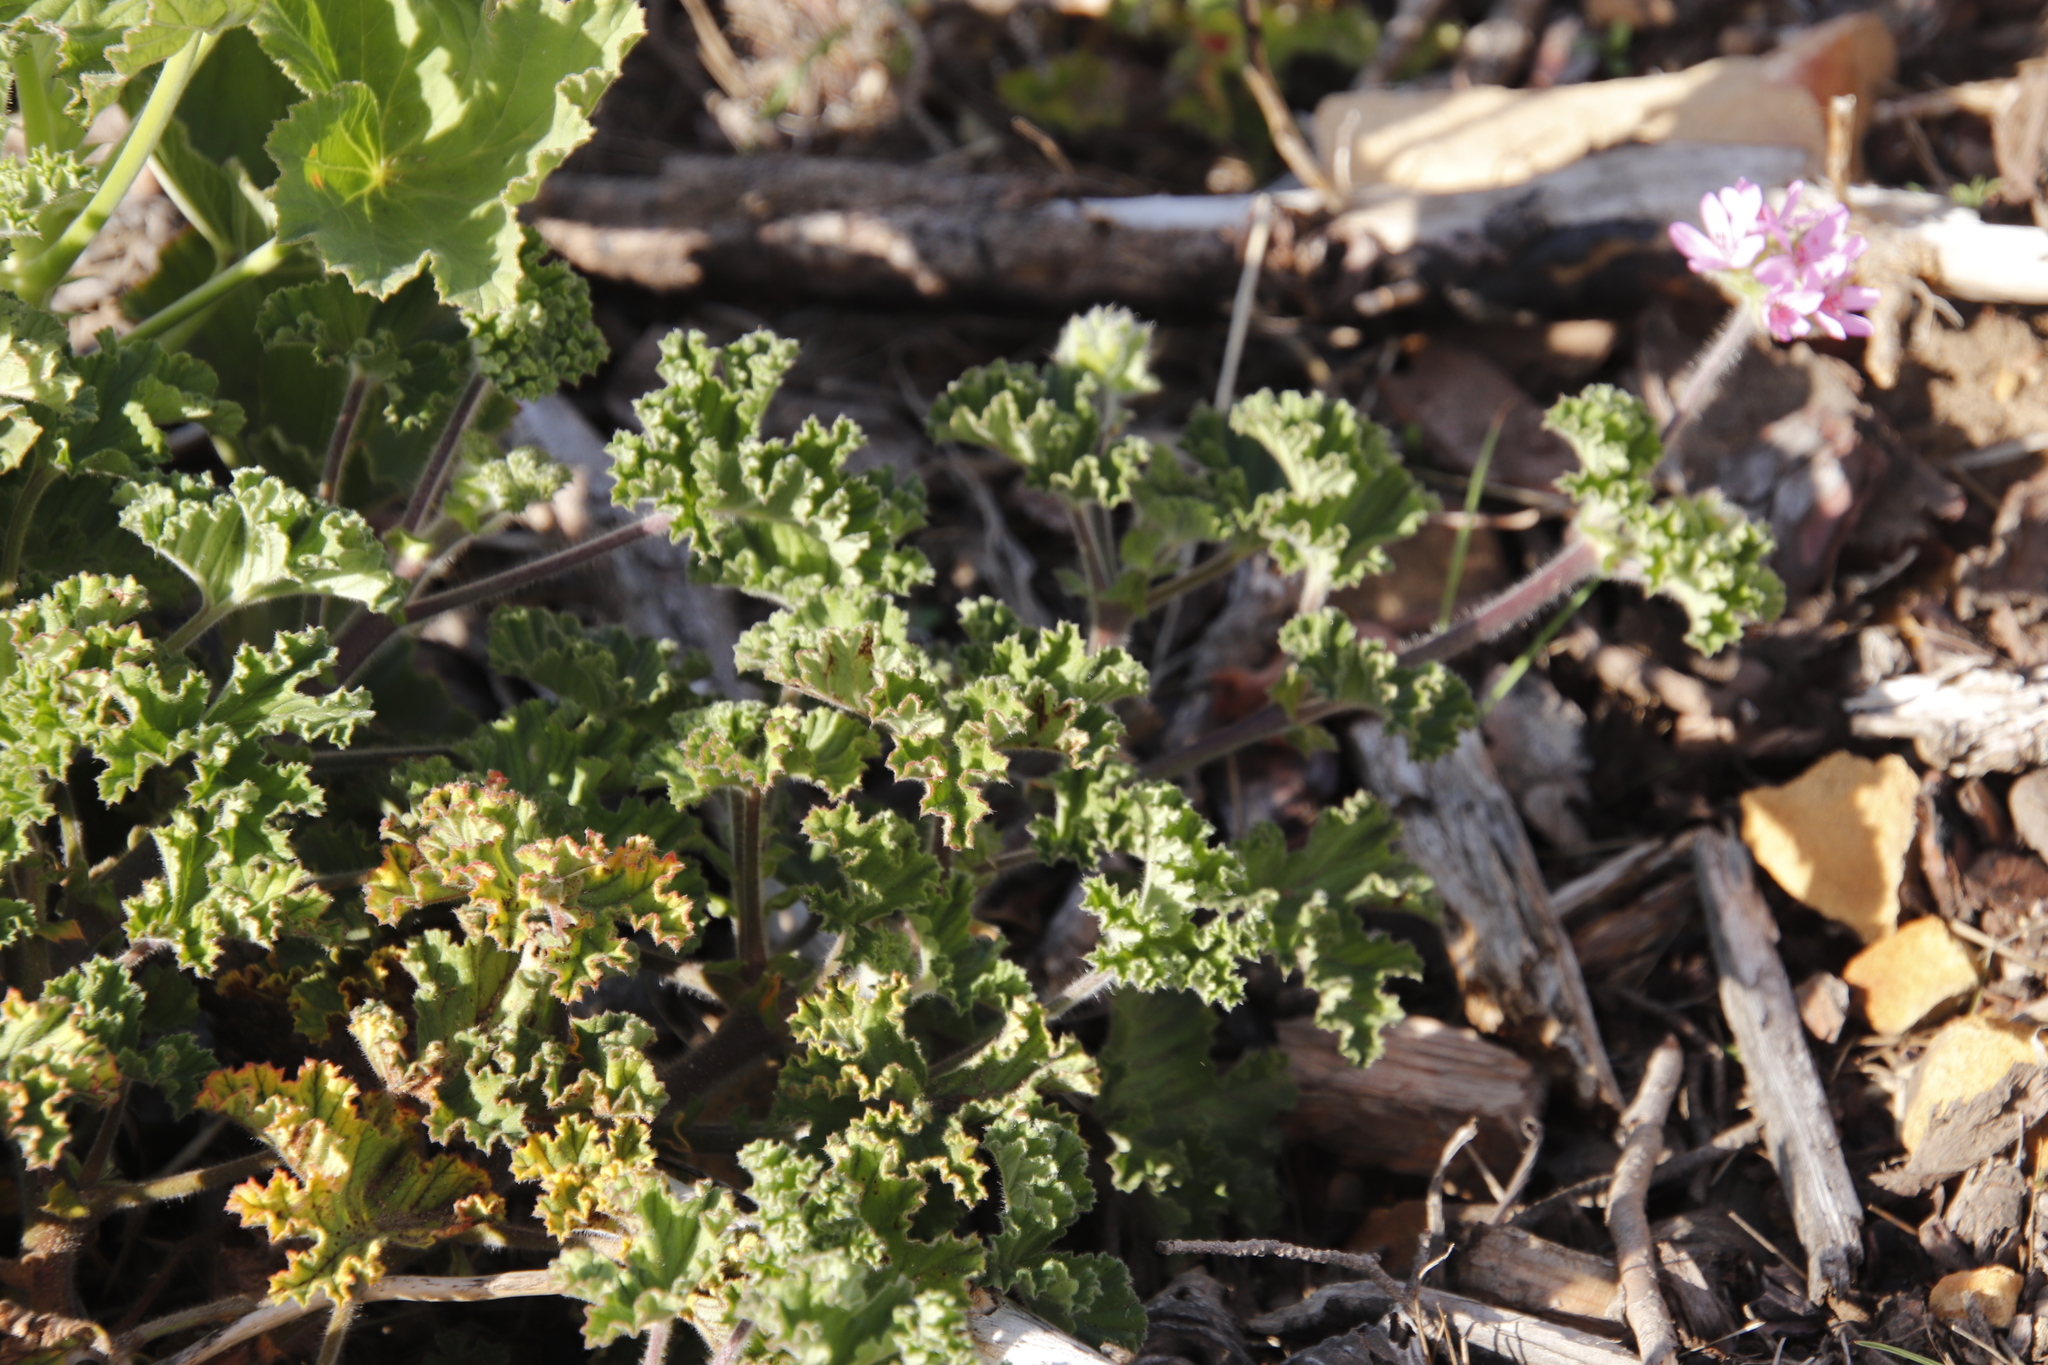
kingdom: Plantae
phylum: Tracheophyta
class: Magnoliopsida
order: Geraniales
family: Geraniaceae
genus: Pelargonium
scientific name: Pelargonium capitatum
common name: Rose scented geranium
